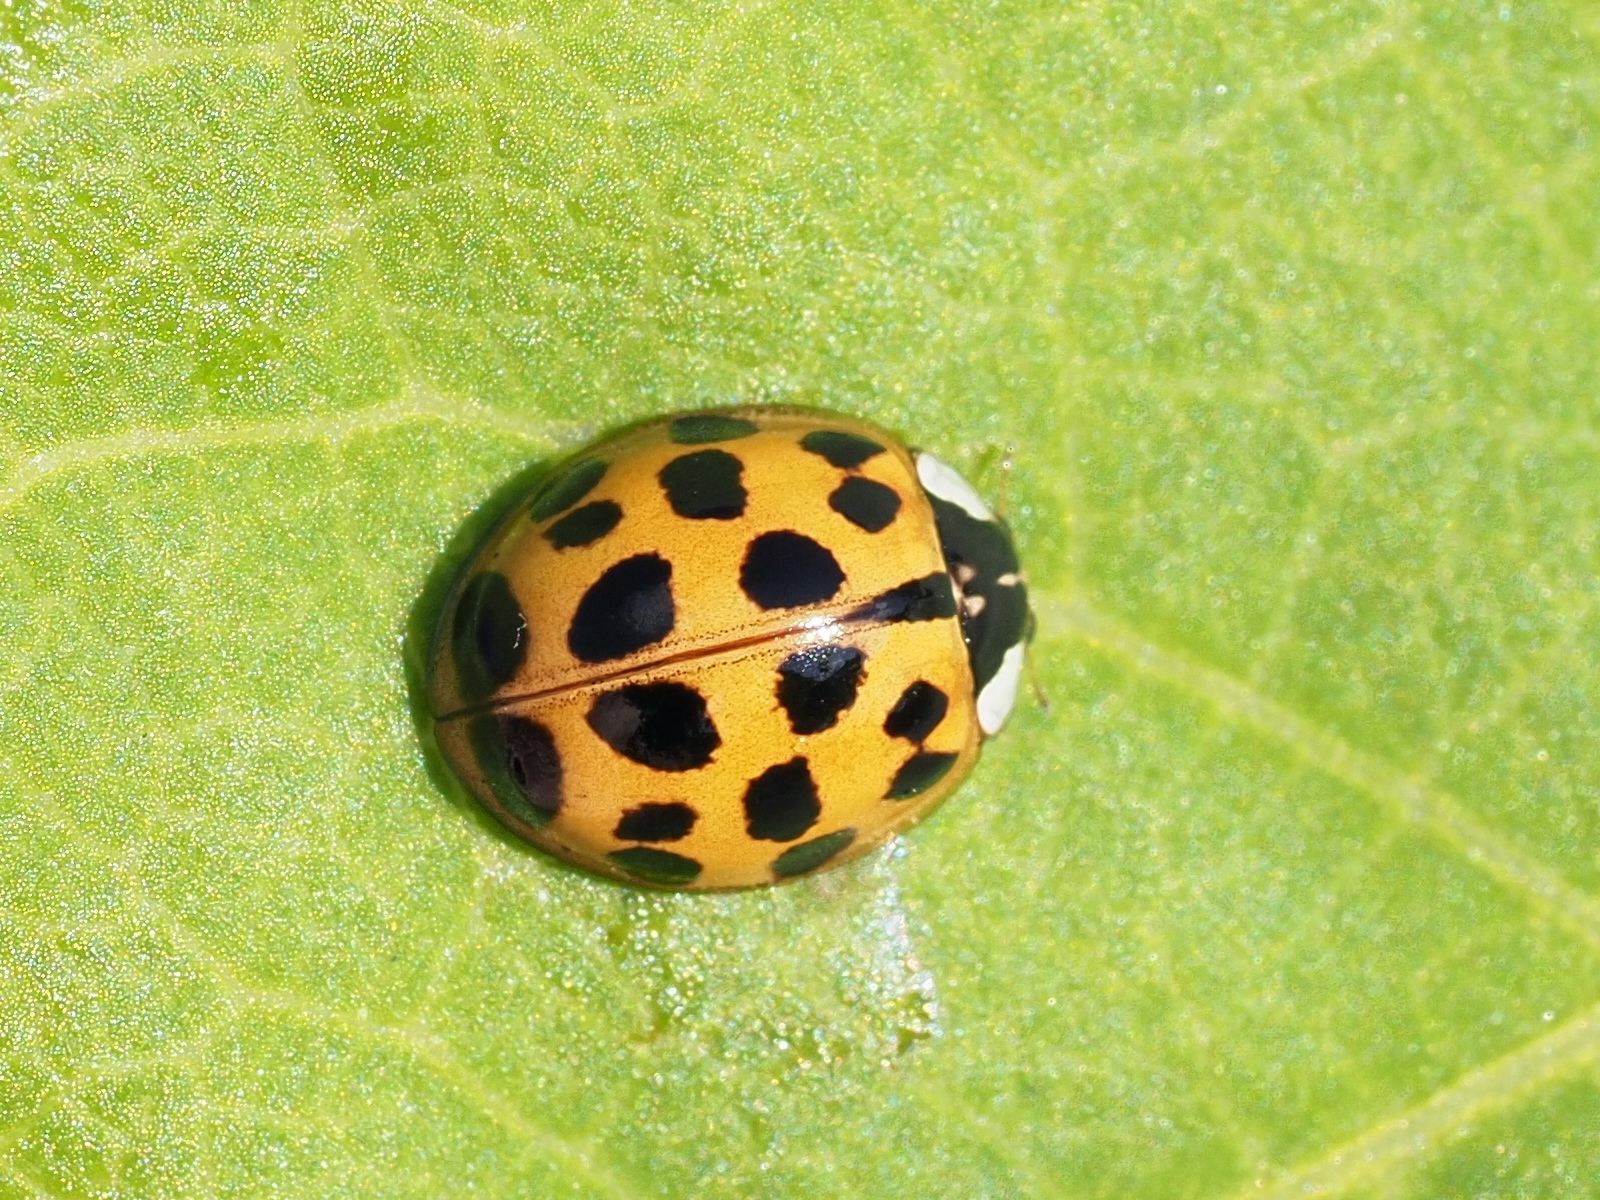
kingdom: Animalia
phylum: Arthropoda
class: Insecta
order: Coleoptera
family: Coccinellidae
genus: Harmonia
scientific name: Harmonia axyridis
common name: Harlequin ladybird
